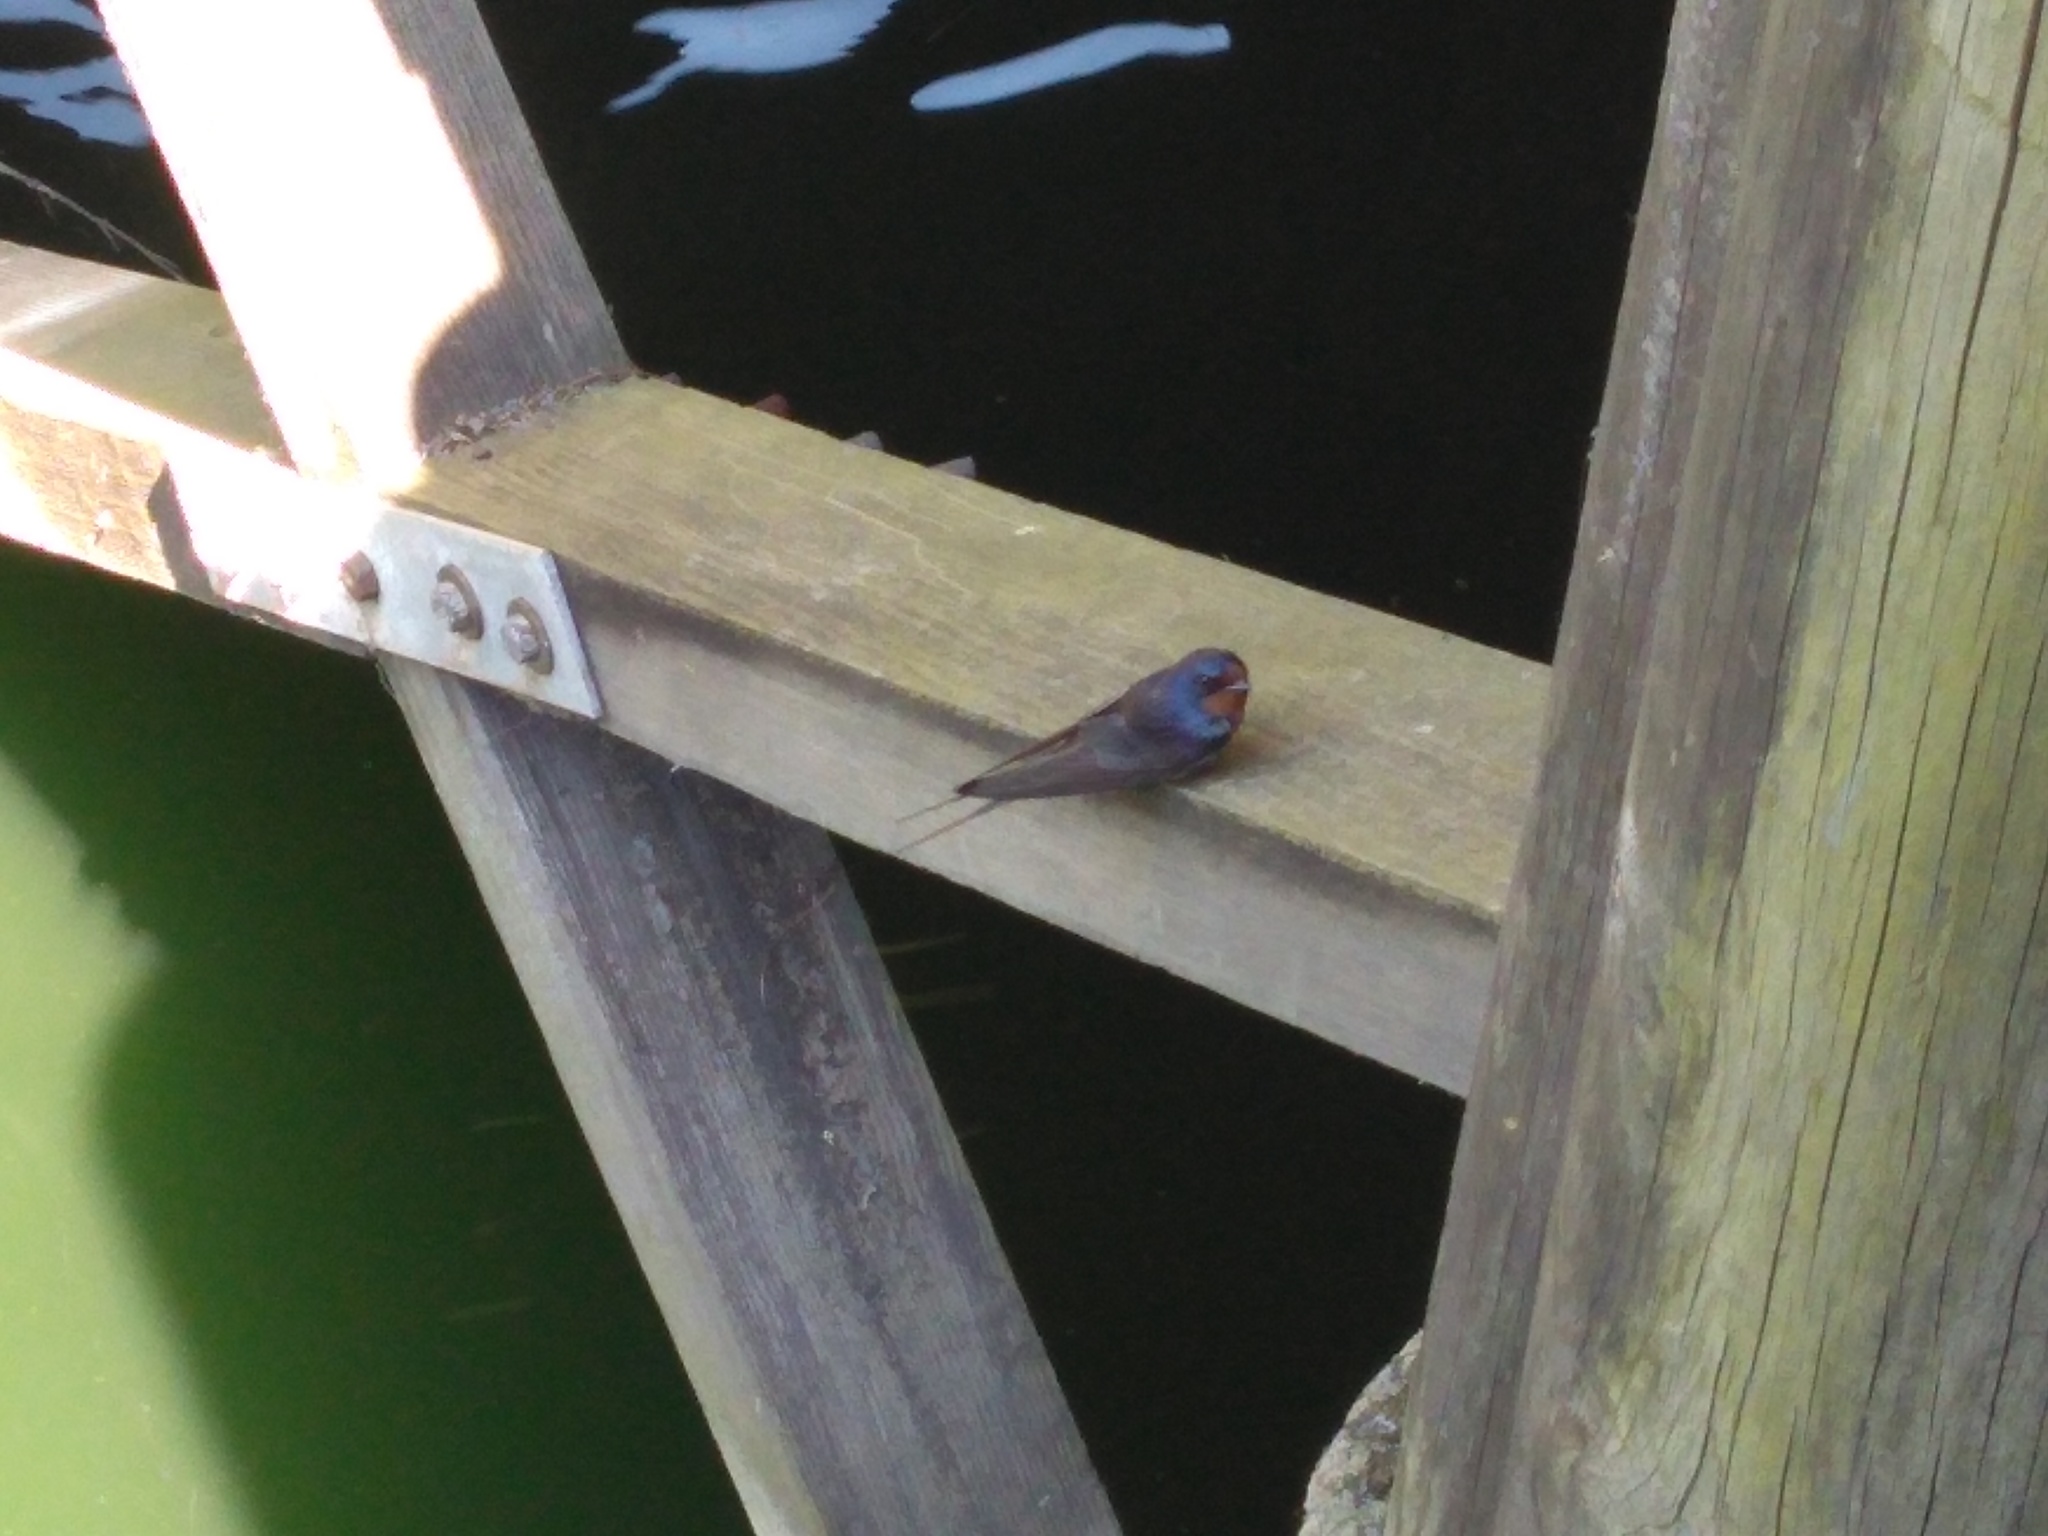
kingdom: Animalia
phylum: Chordata
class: Aves
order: Passeriformes
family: Hirundinidae
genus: Hirundo
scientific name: Hirundo rustica
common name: Barn swallow
